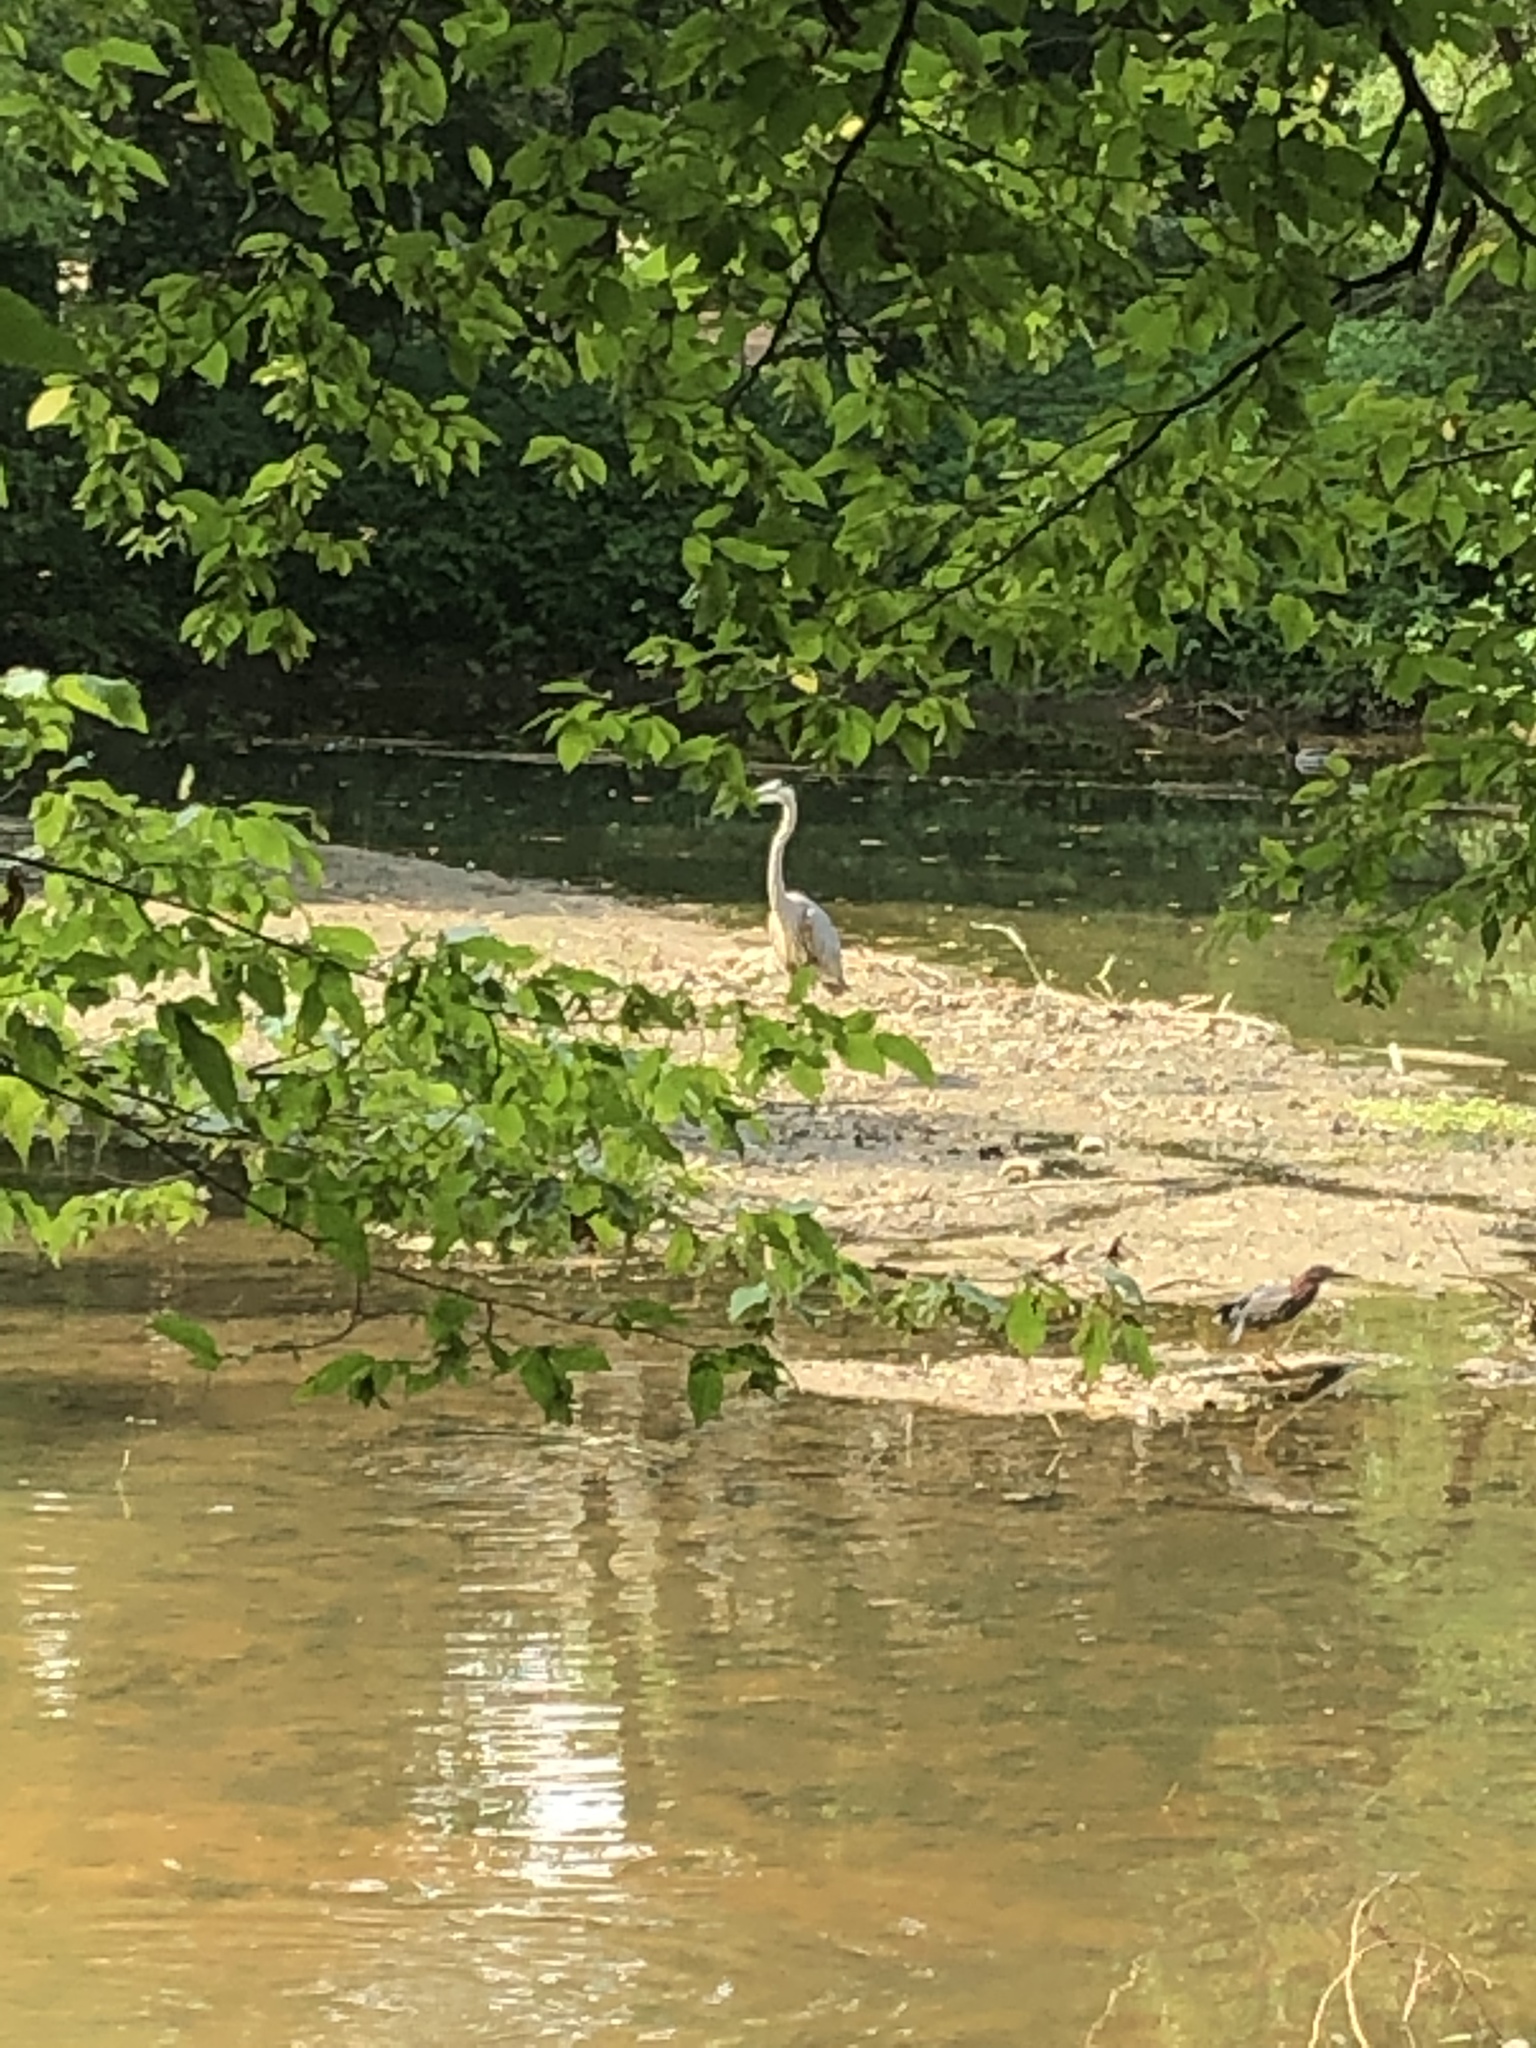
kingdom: Animalia
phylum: Chordata
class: Aves
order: Pelecaniformes
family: Ardeidae
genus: Ardea
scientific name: Ardea herodias
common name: Great blue heron
